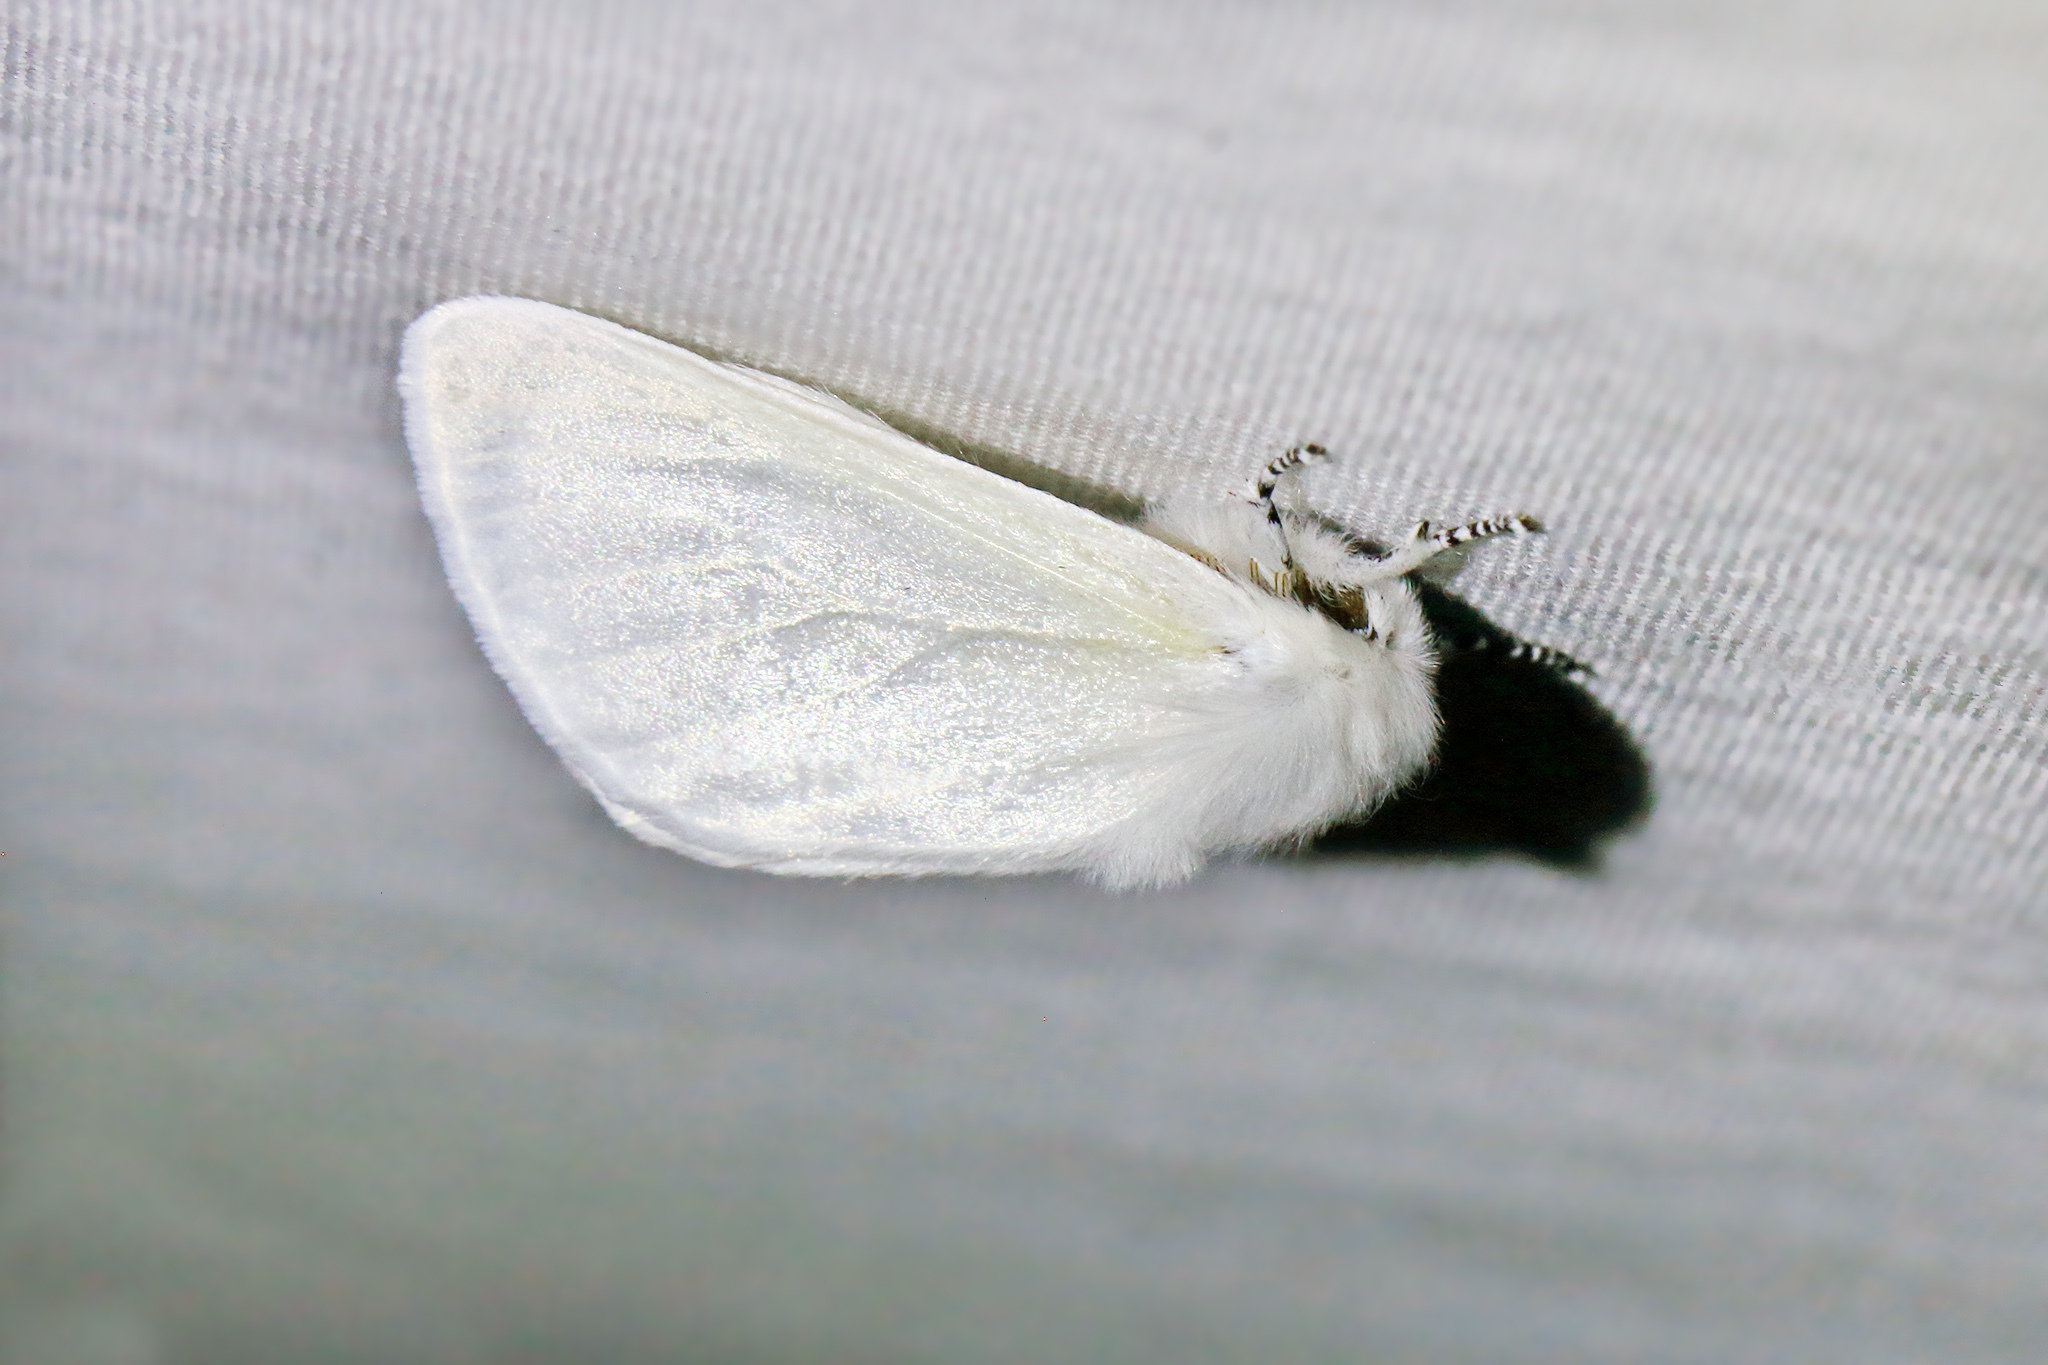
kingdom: Animalia
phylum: Arthropoda
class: Insecta
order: Lepidoptera
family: Erebidae
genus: Leucoma
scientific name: Leucoma salicis
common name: White satin moth
